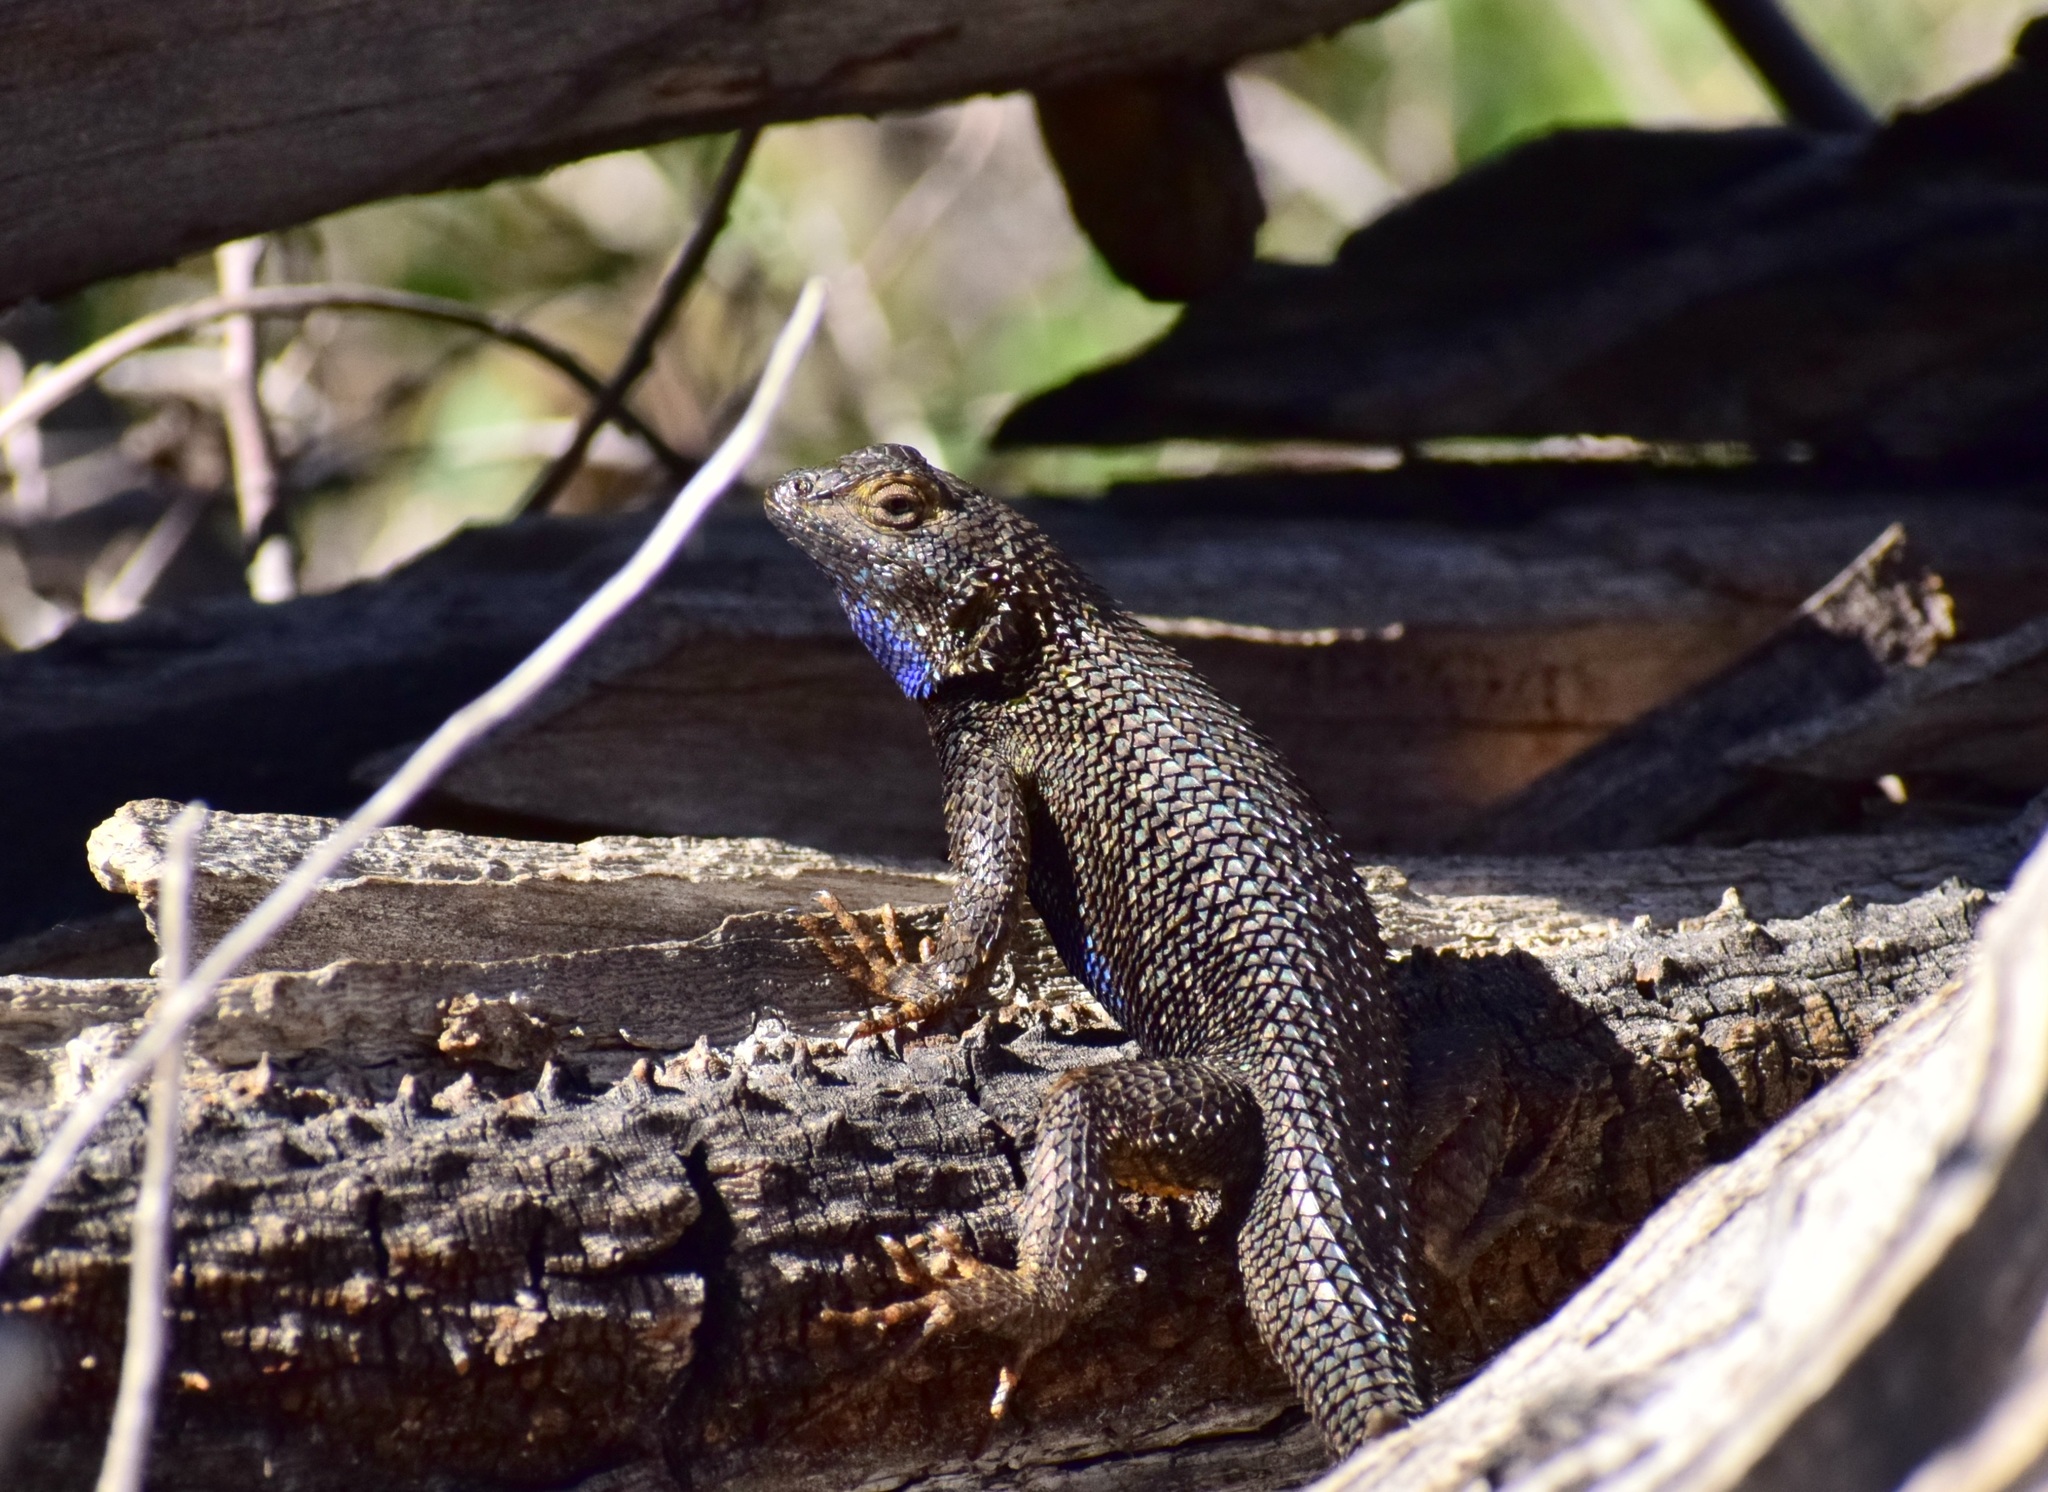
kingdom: Animalia
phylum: Chordata
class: Squamata
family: Phrynosomatidae
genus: Sceloporus
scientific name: Sceloporus occidentalis
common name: Western fence lizard
